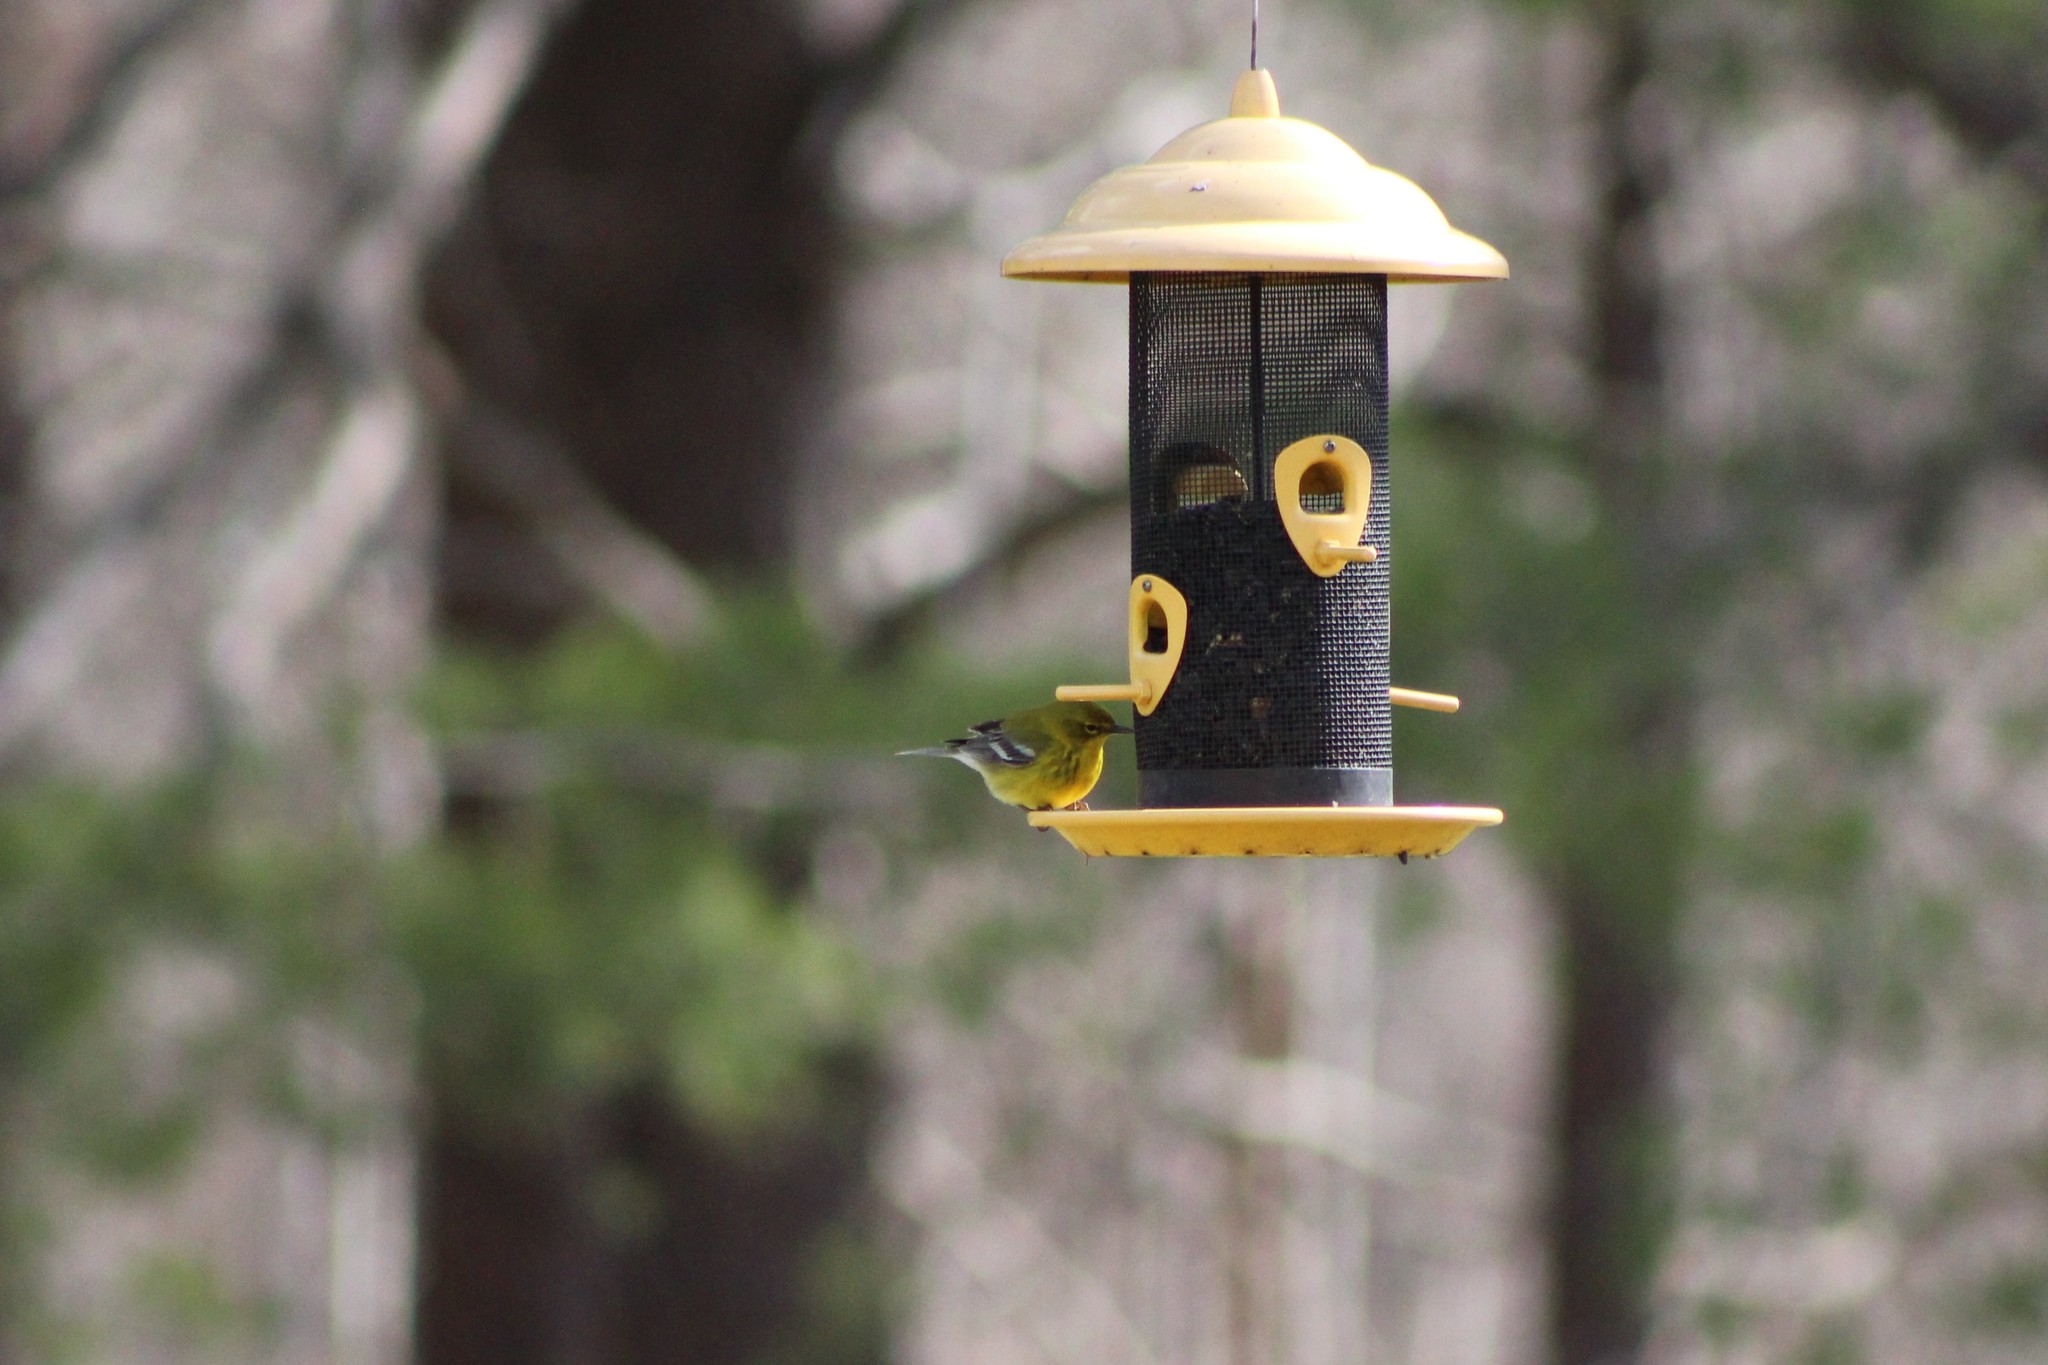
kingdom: Animalia
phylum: Chordata
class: Aves
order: Passeriformes
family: Parulidae
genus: Setophaga
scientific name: Setophaga pinus
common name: Pine warbler
